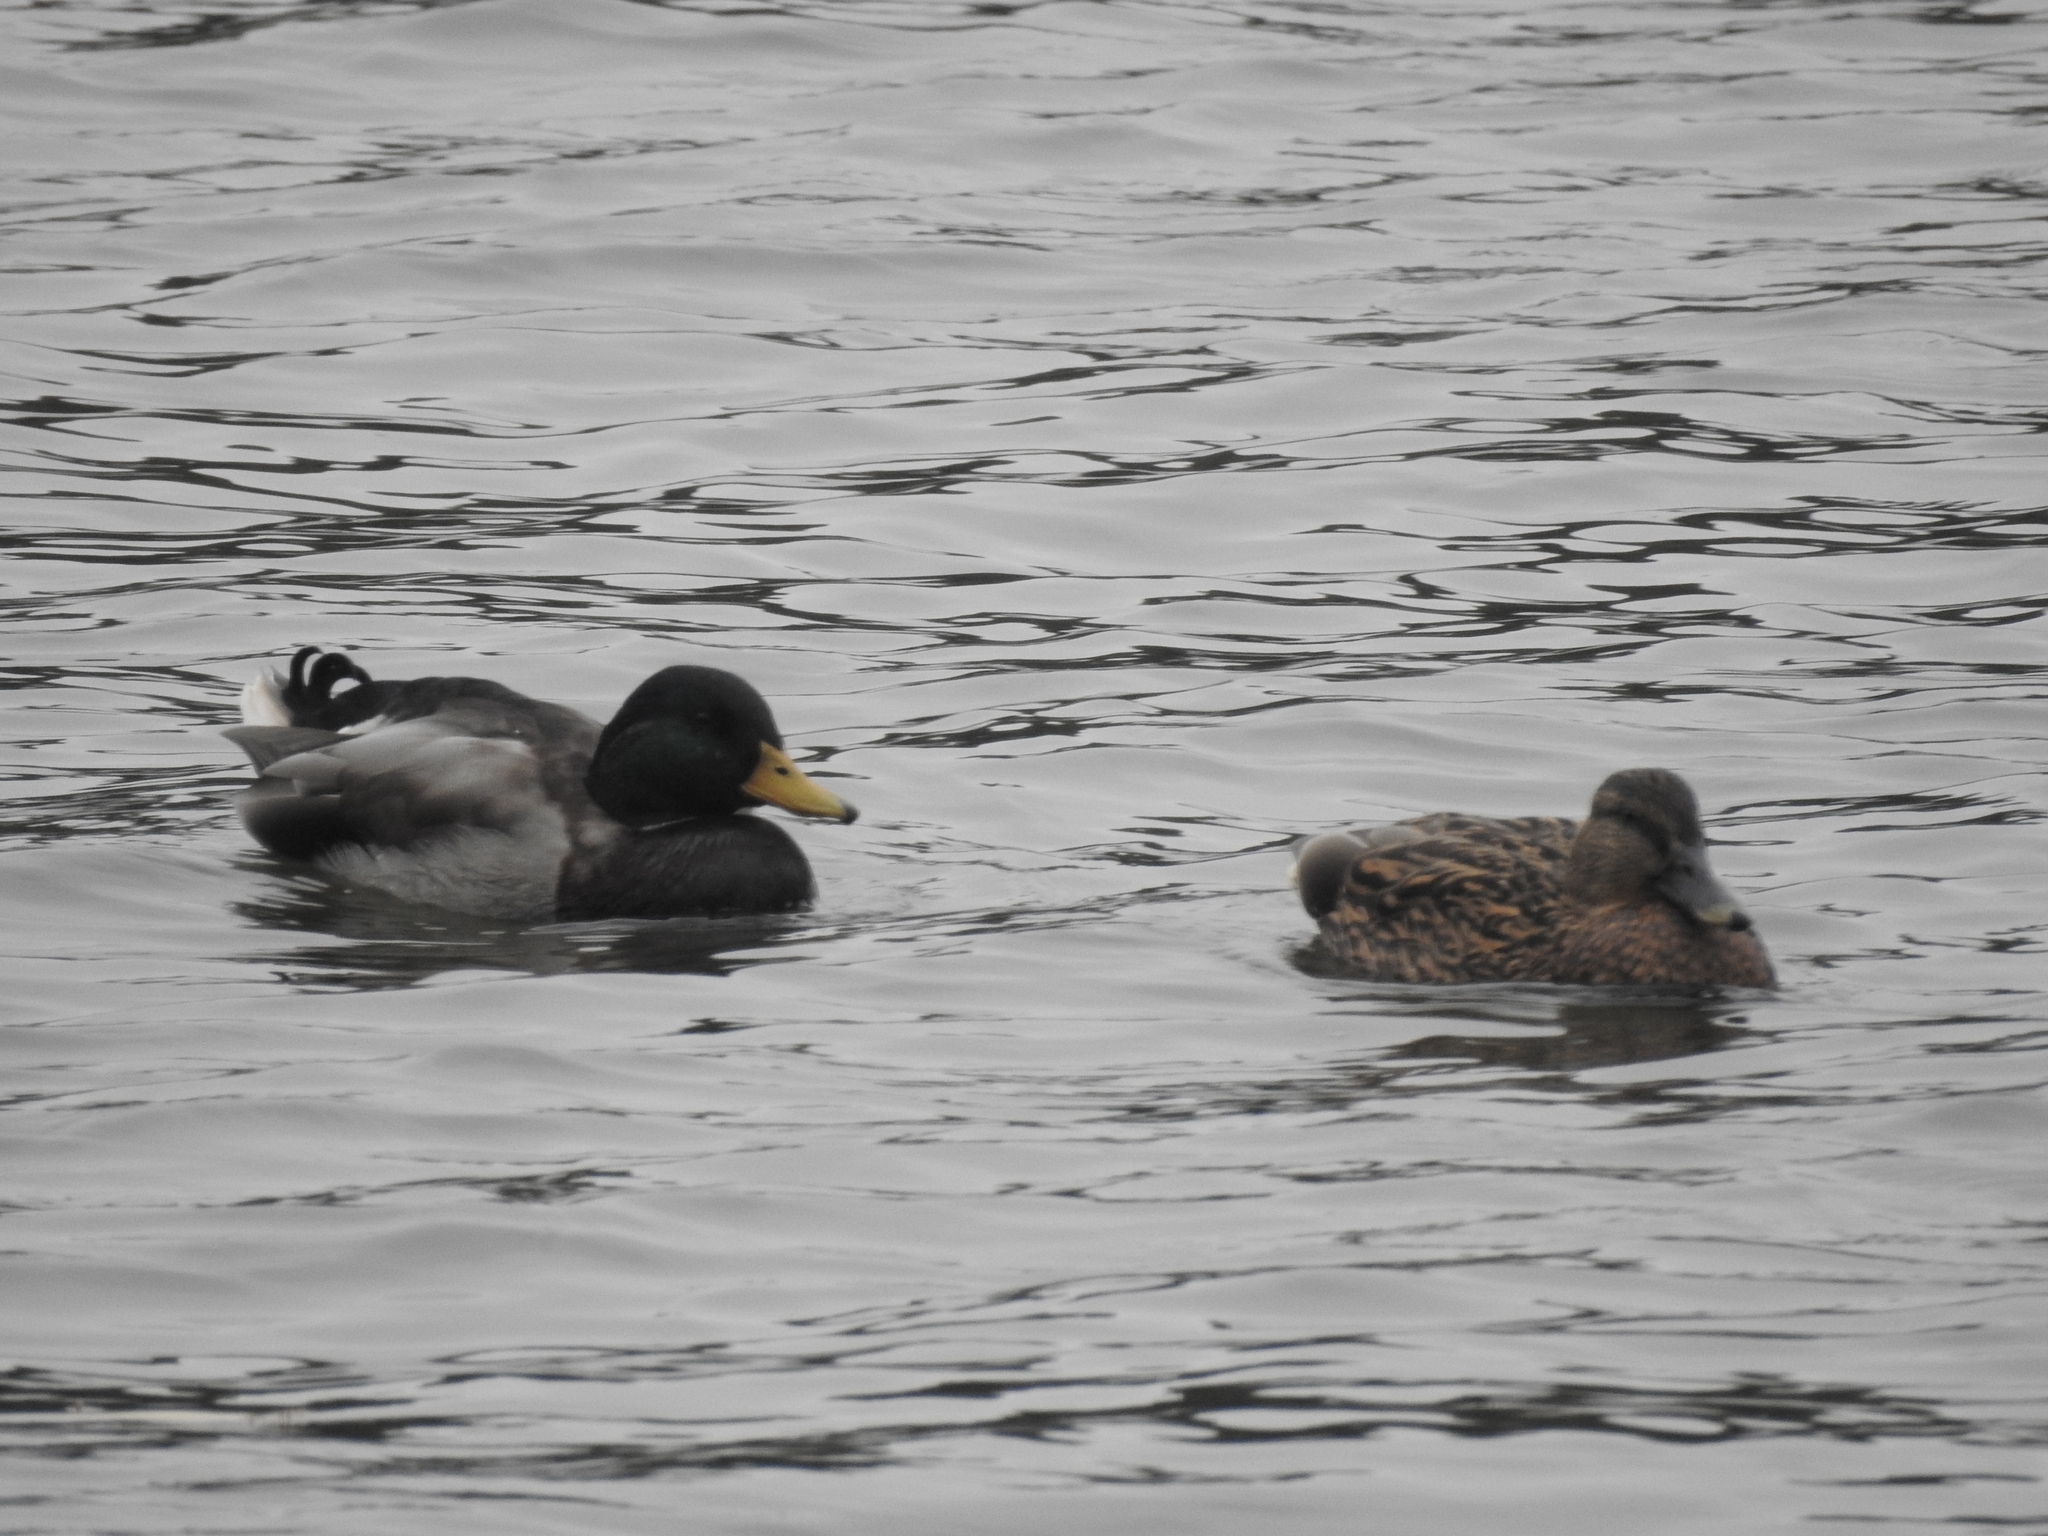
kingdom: Animalia
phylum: Chordata
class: Aves
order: Anseriformes
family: Anatidae
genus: Anas
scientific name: Anas platyrhynchos
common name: Mallard
